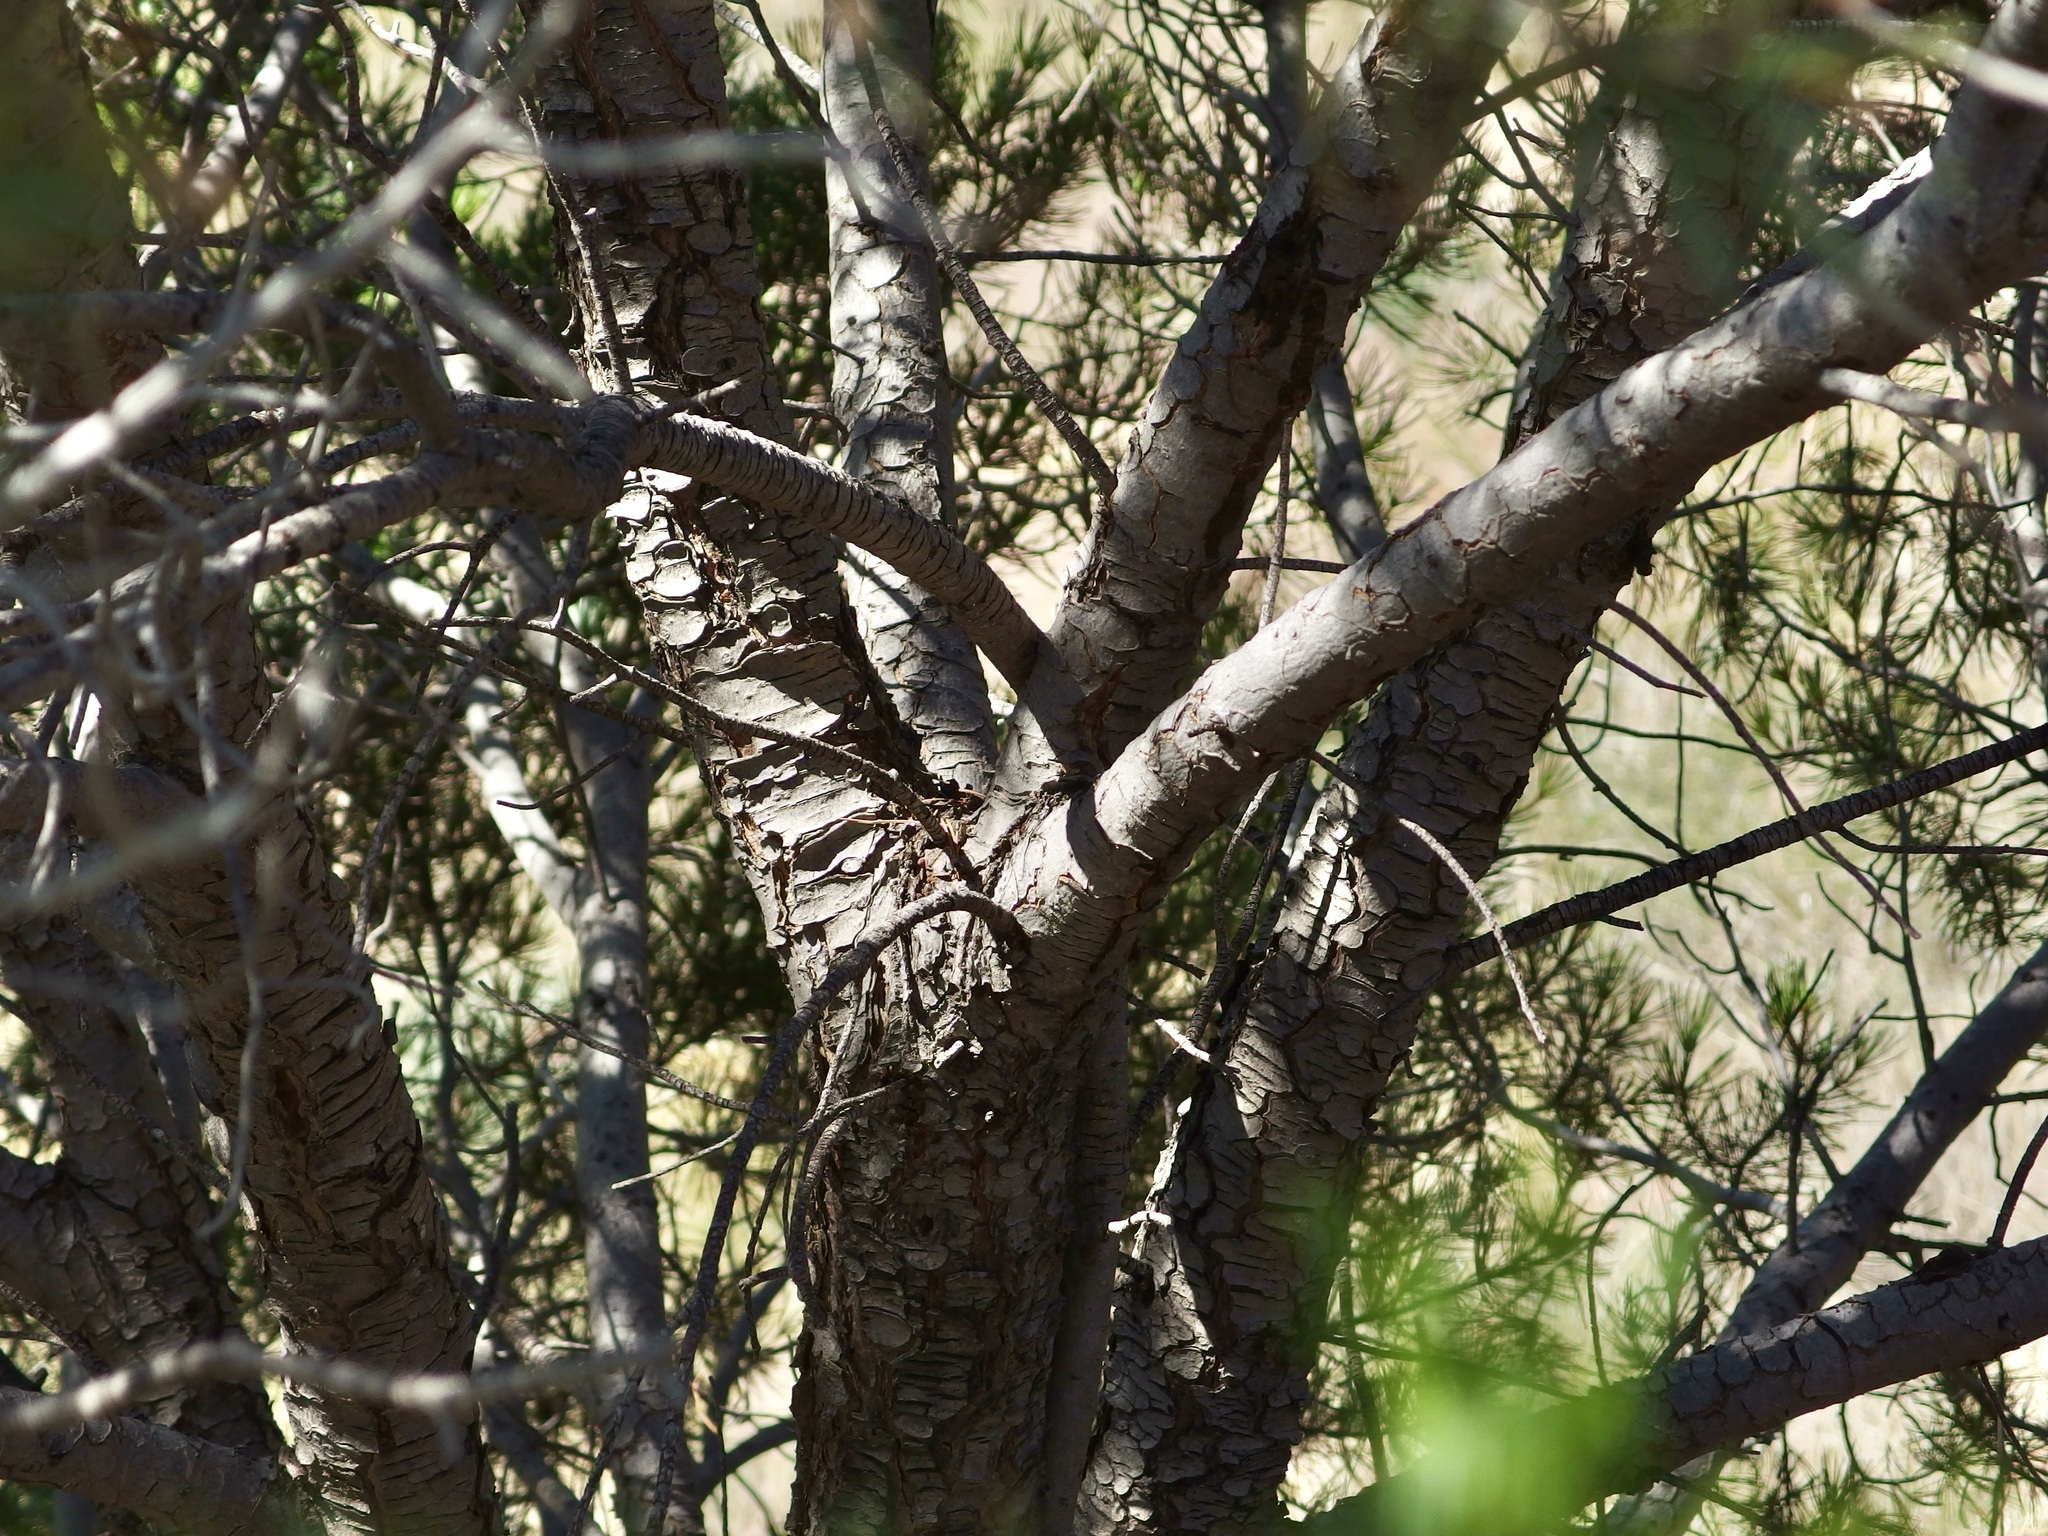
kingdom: Plantae
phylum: Tracheophyta
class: Pinopsida
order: Pinales
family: Pinaceae
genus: Pinus
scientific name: Pinus discolor
